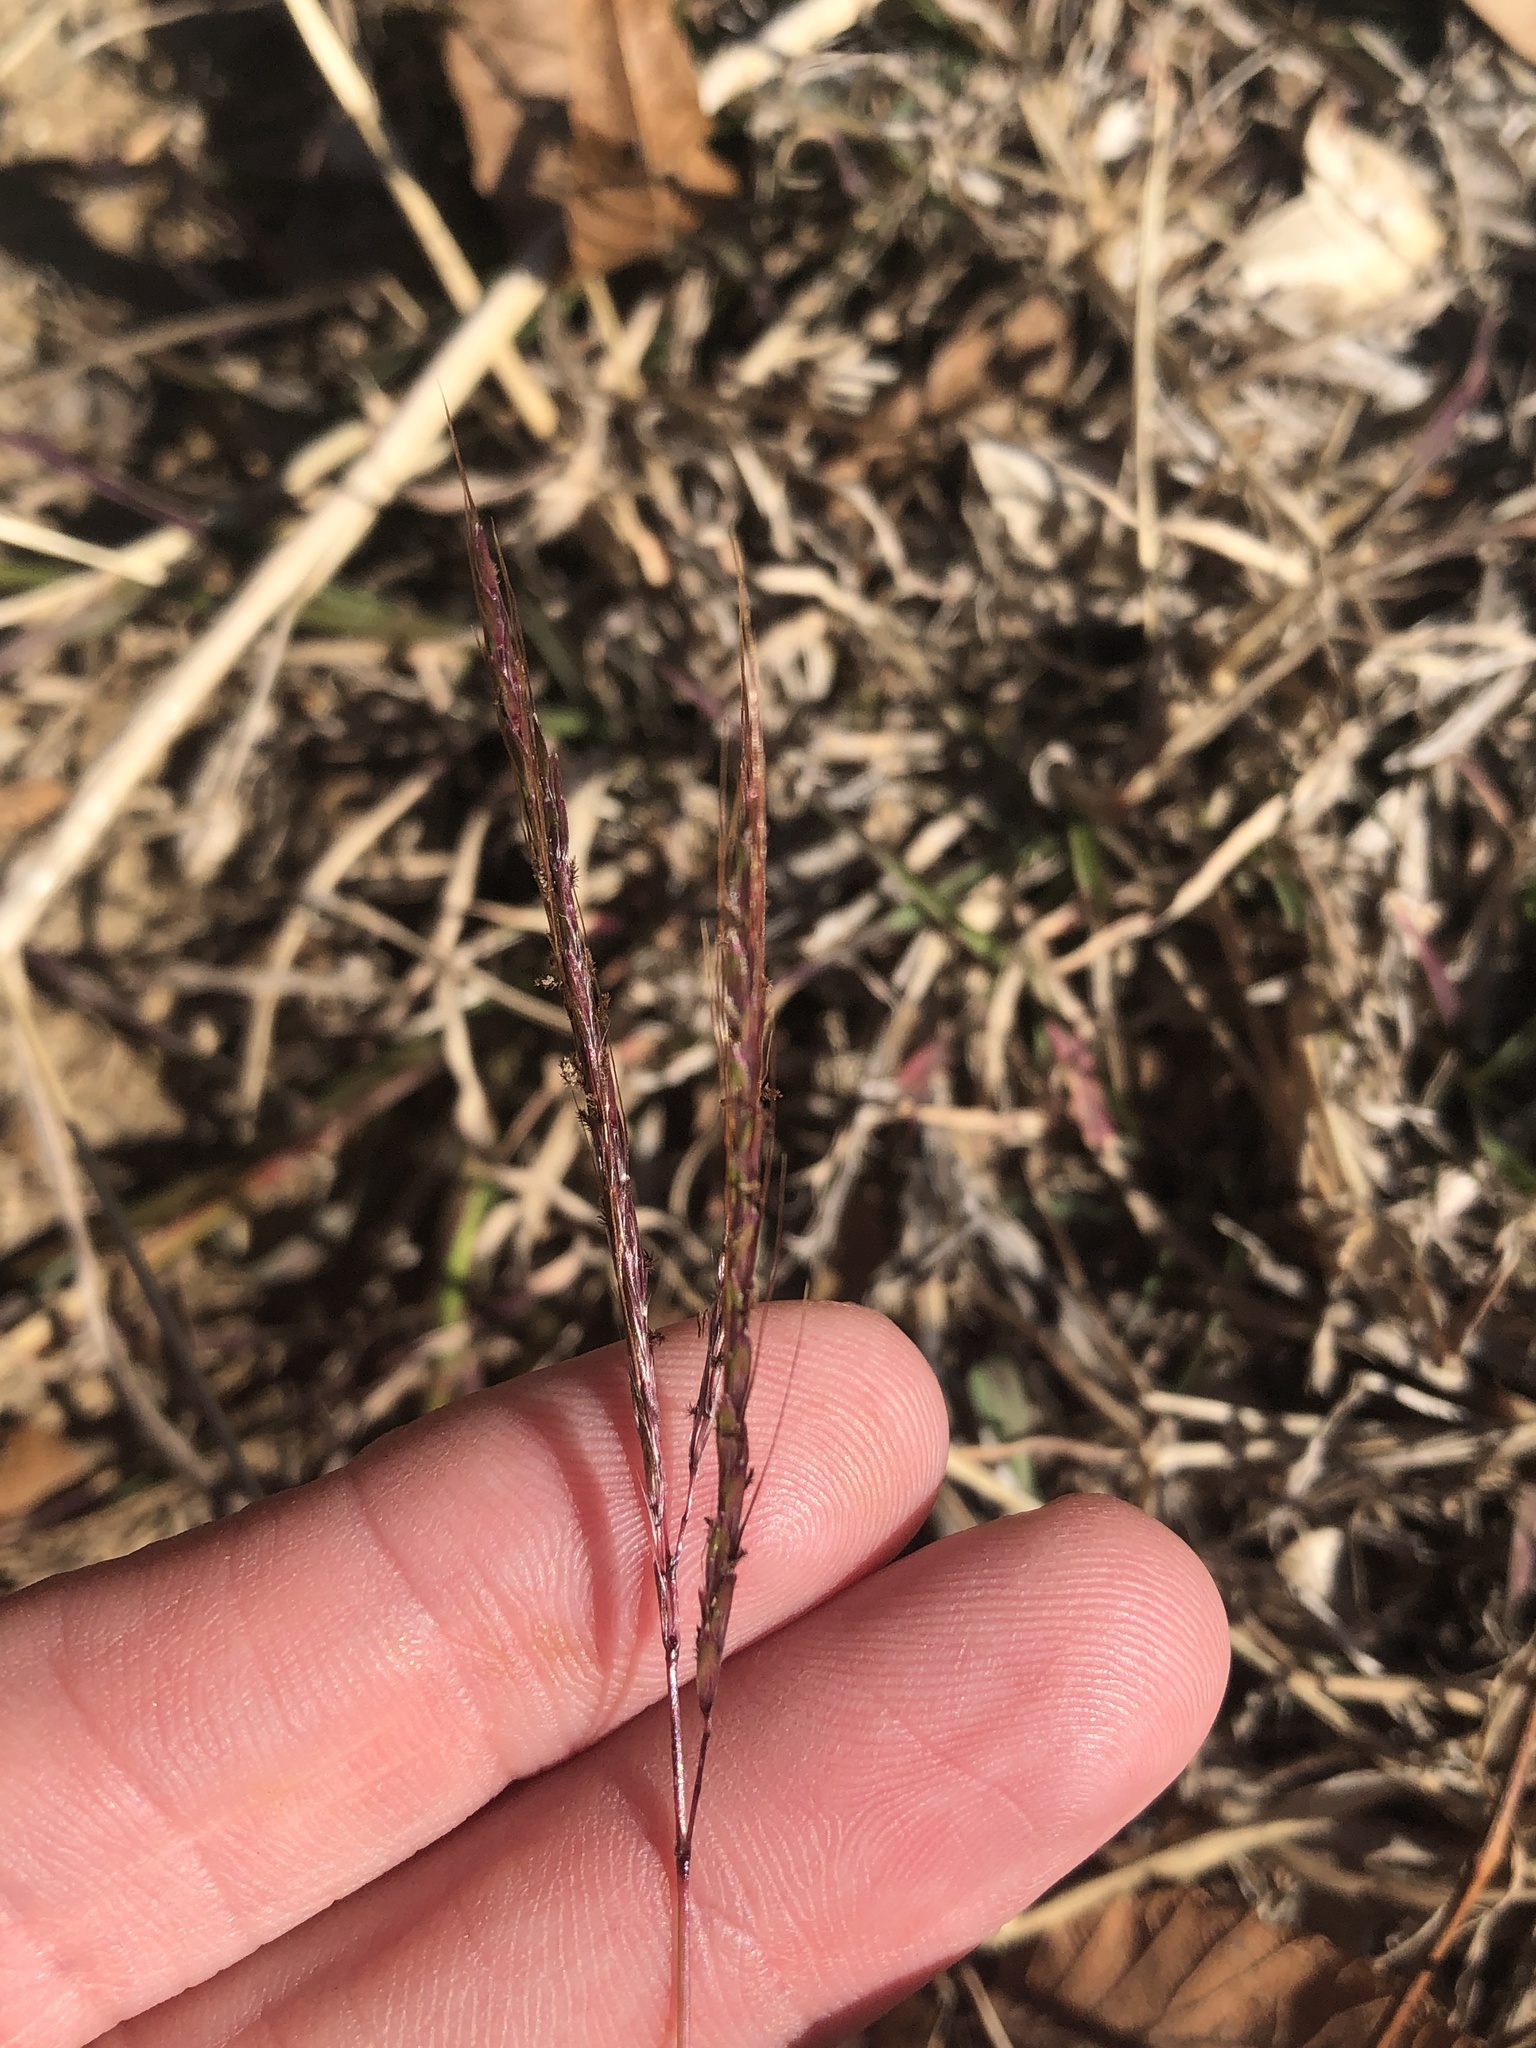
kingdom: Plantae
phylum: Tracheophyta
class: Liliopsida
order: Poales
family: Poaceae
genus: Bothriochloa
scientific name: Bothriochloa ischaemum
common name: Yellow bluestem
